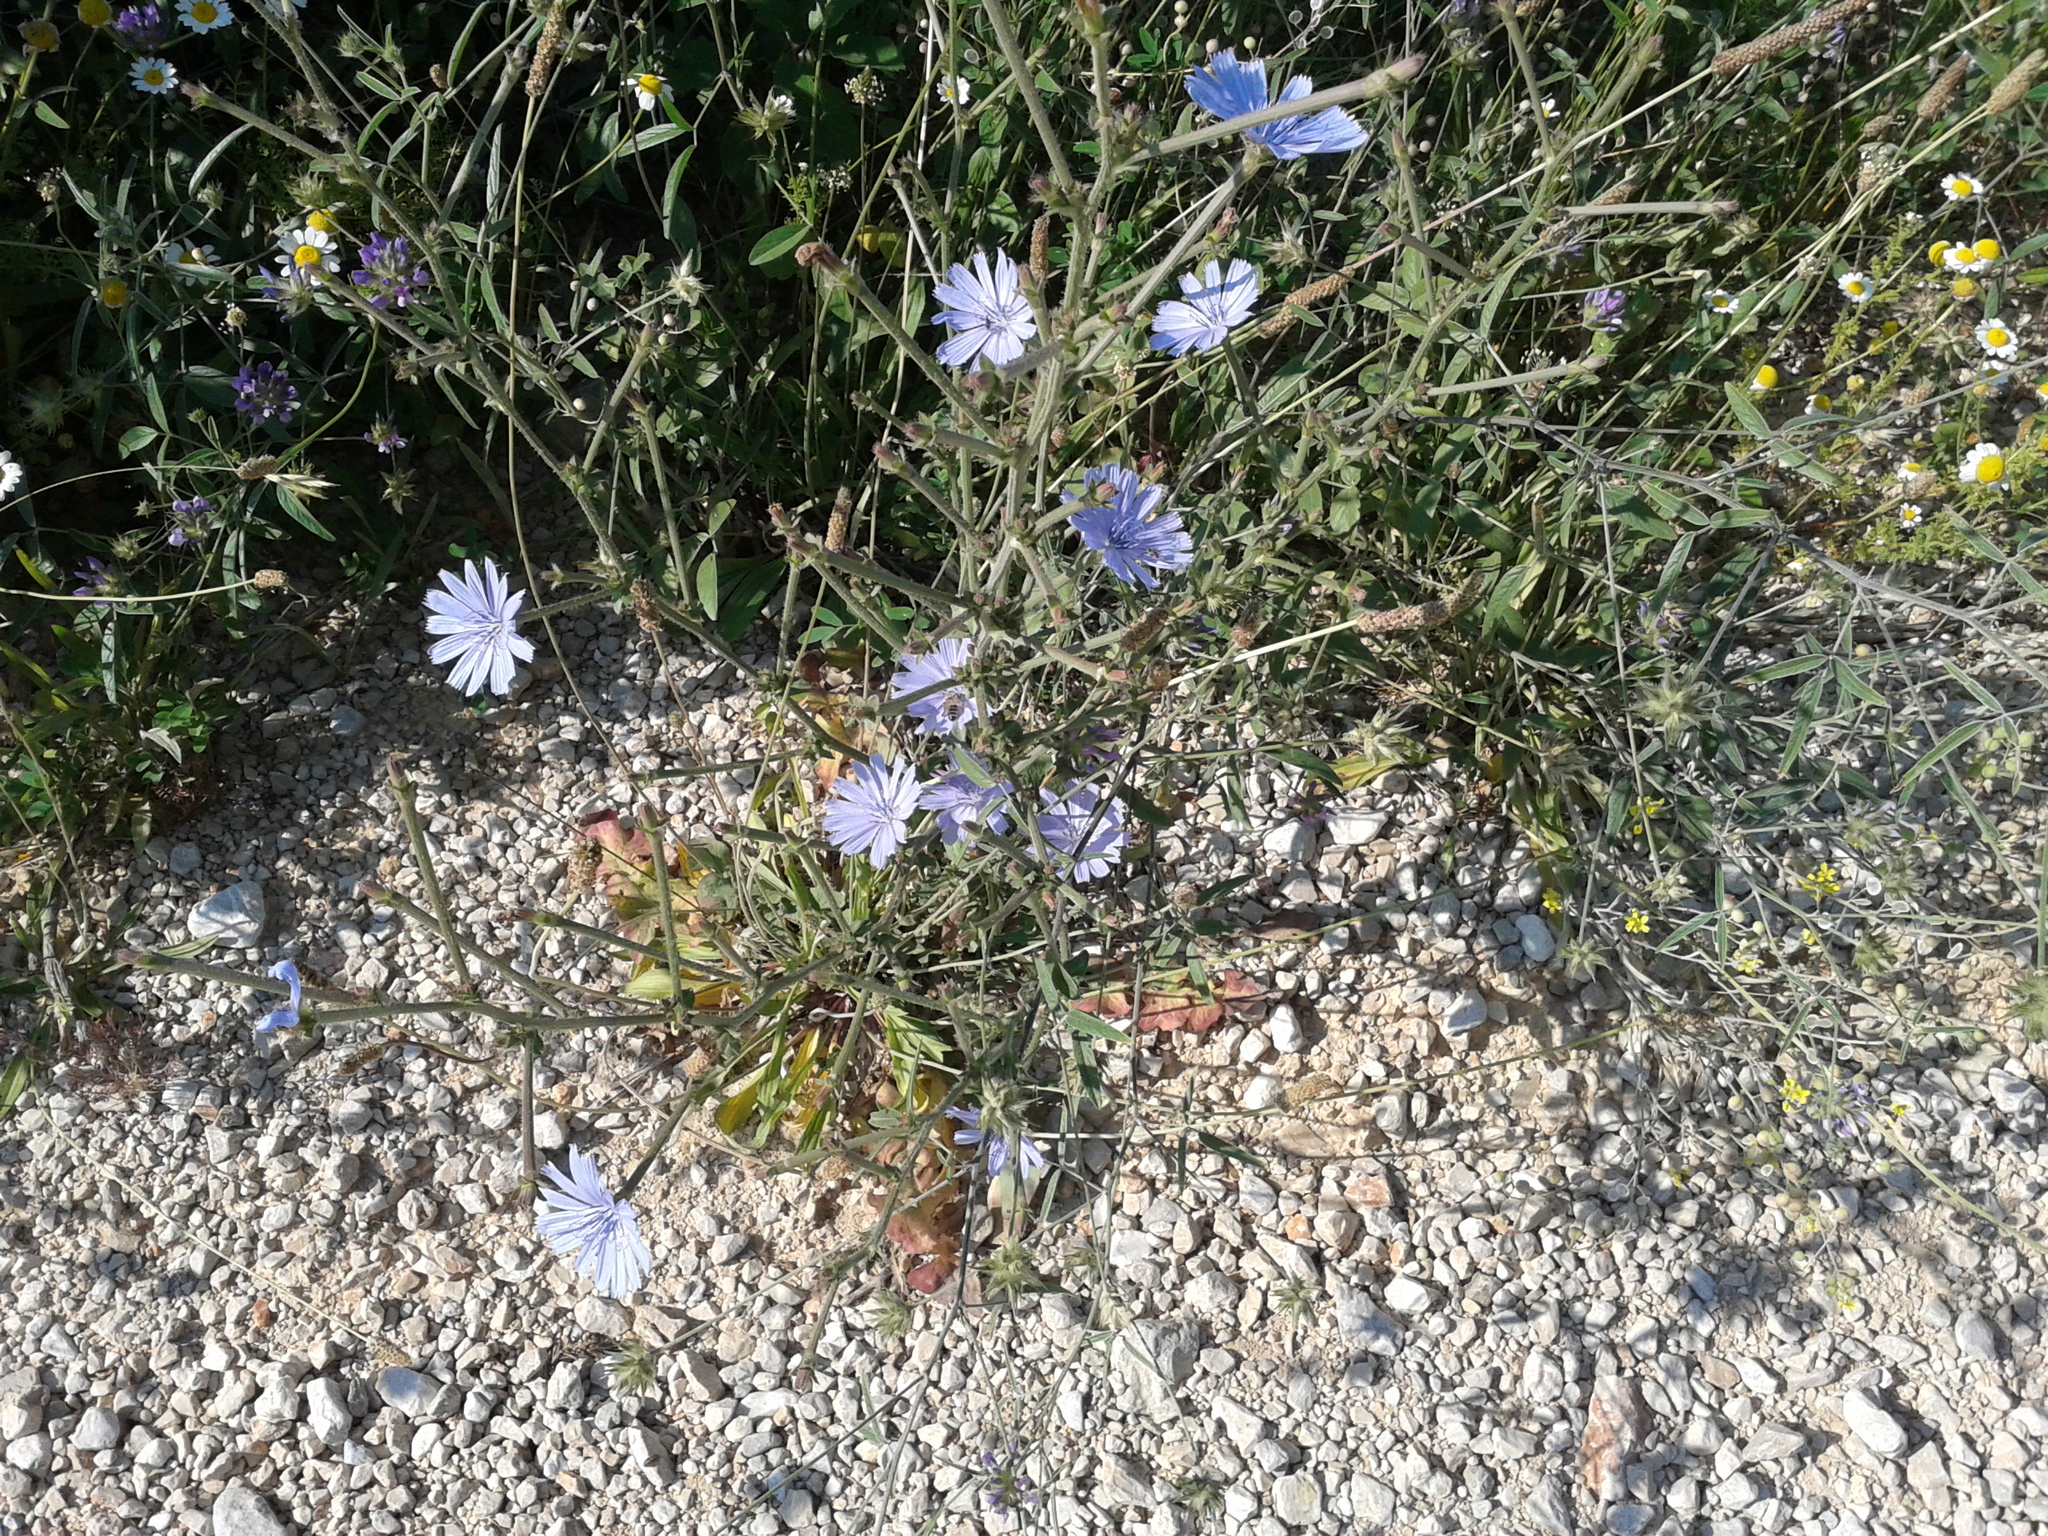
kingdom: Plantae
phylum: Tracheophyta
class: Magnoliopsida
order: Asterales
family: Asteraceae
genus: Cichorium
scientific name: Cichorium intybus
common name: Chicory
